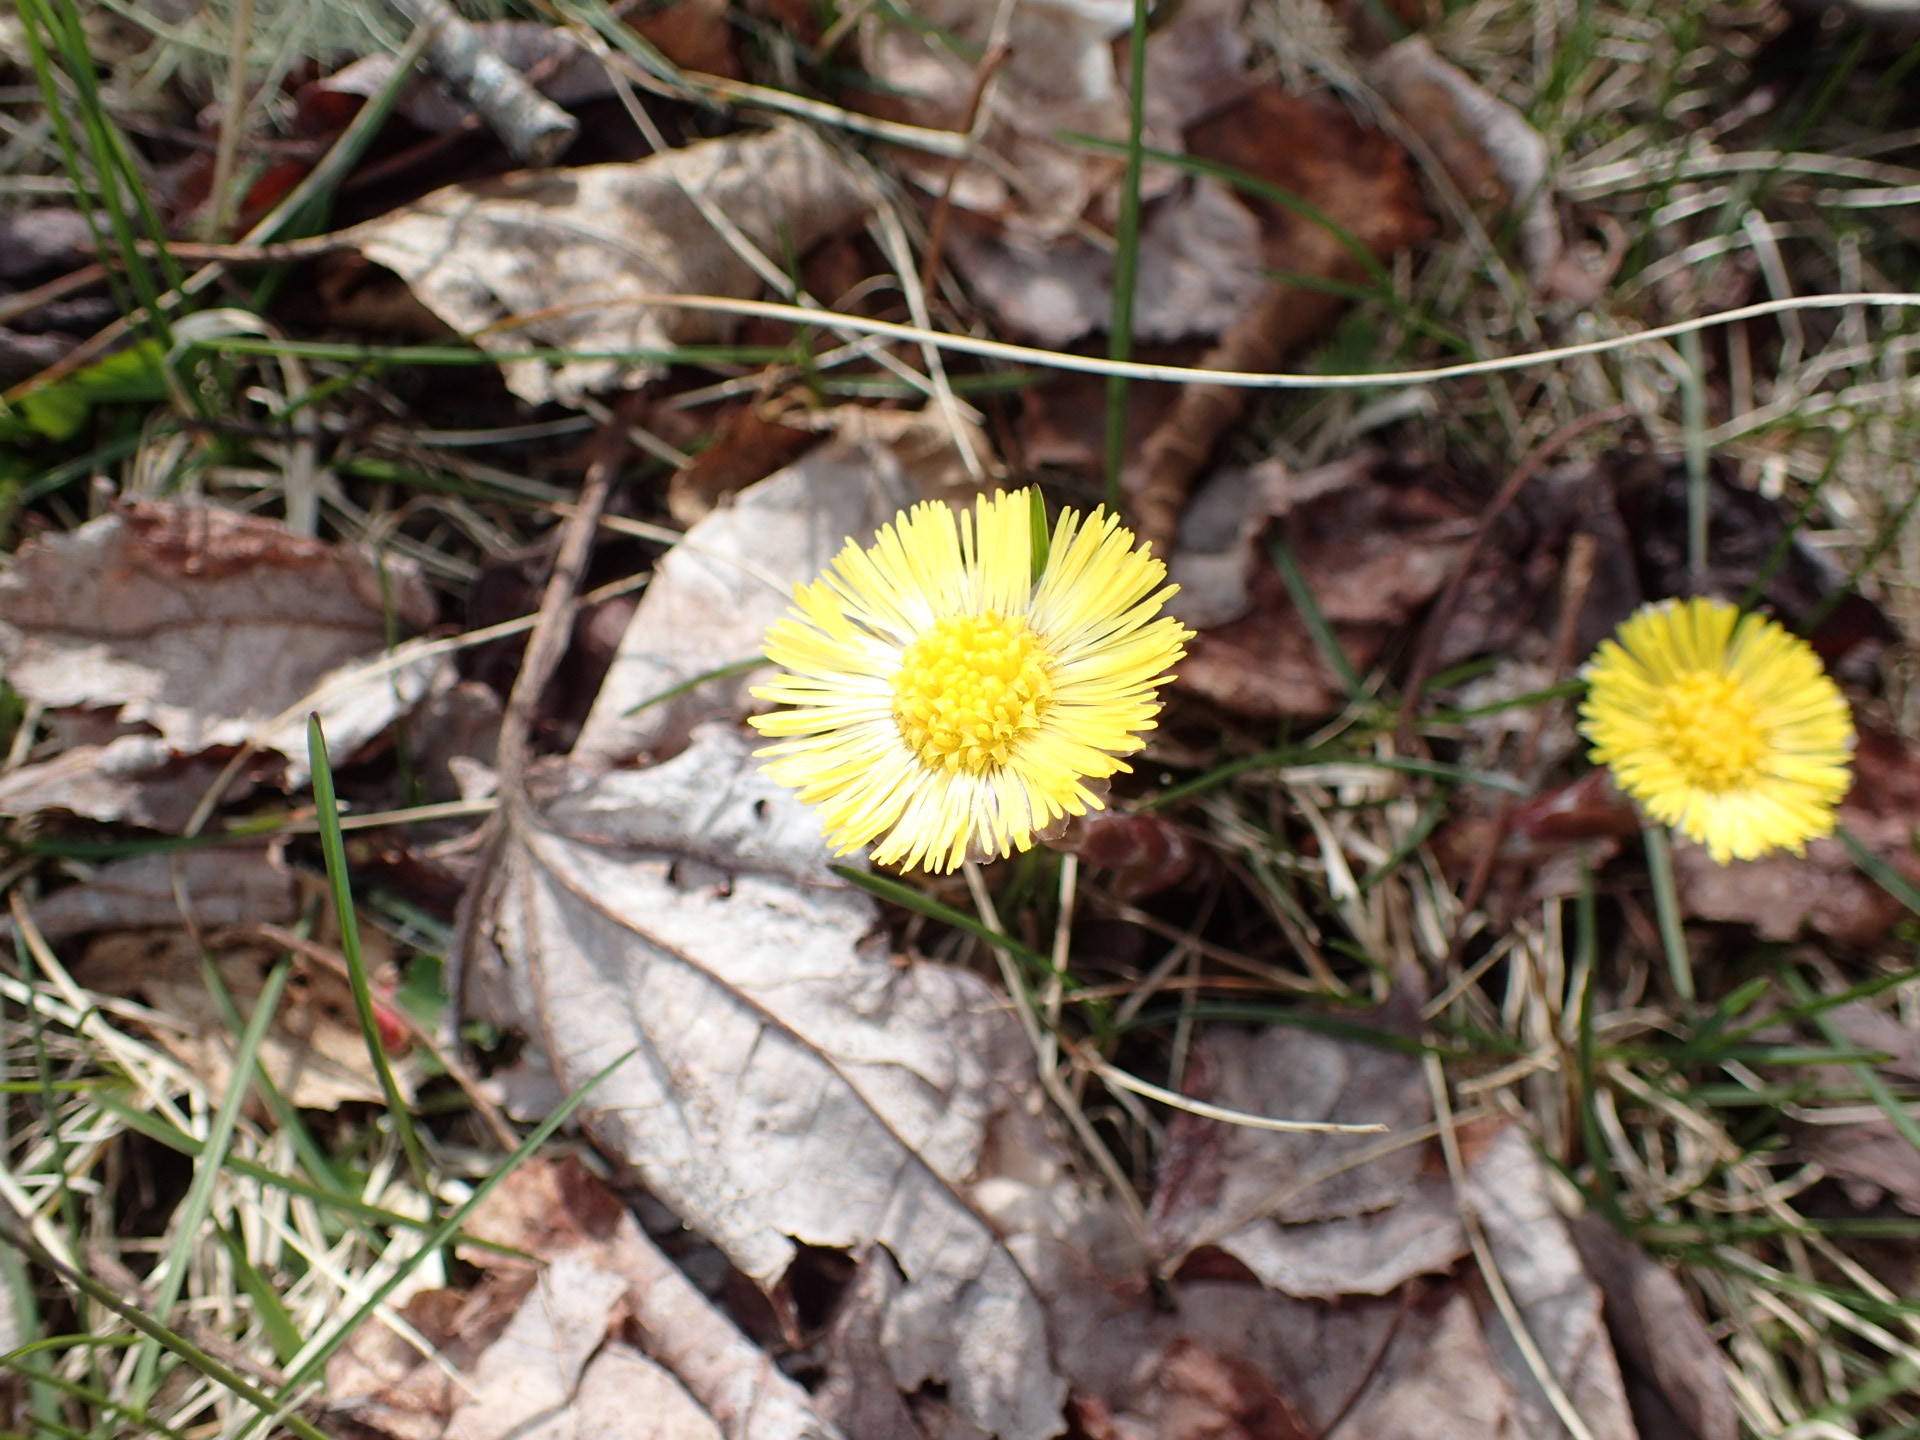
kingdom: Plantae
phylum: Tracheophyta
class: Magnoliopsida
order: Asterales
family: Asteraceae
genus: Tussilago
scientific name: Tussilago farfara
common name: Coltsfoot
